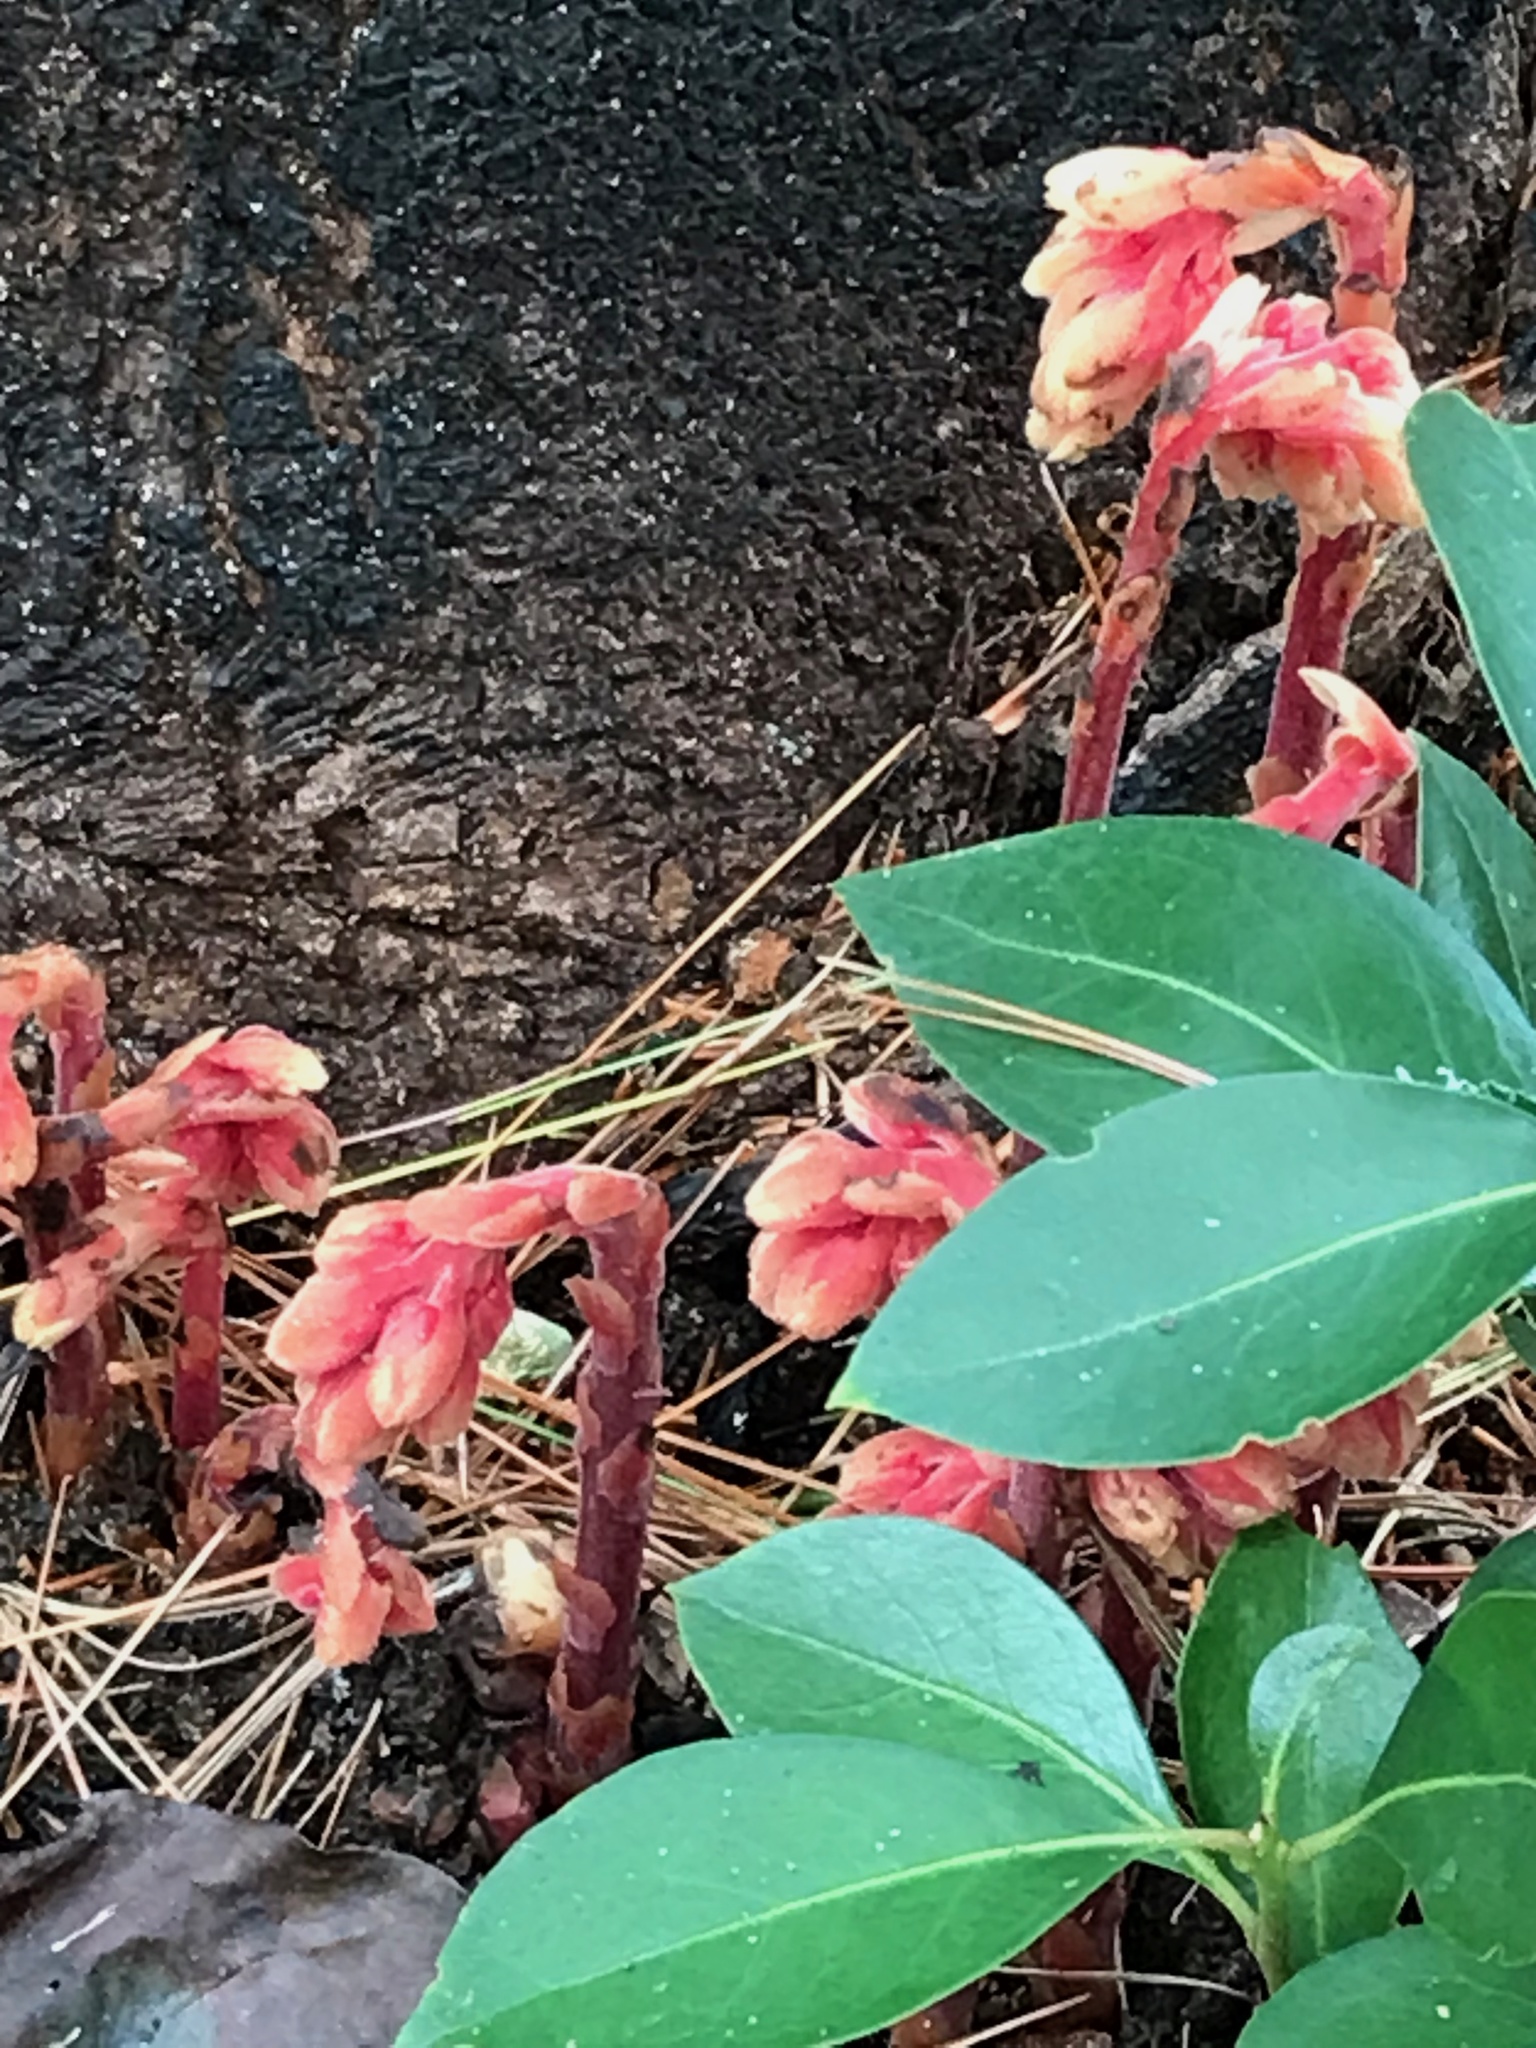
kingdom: Plantae
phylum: Tracheophyta
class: Magnoliopsida
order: Ericales
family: Ericaceae
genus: Hypopitys
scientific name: Hypopitys monotropa
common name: Yellow bird's-nest
